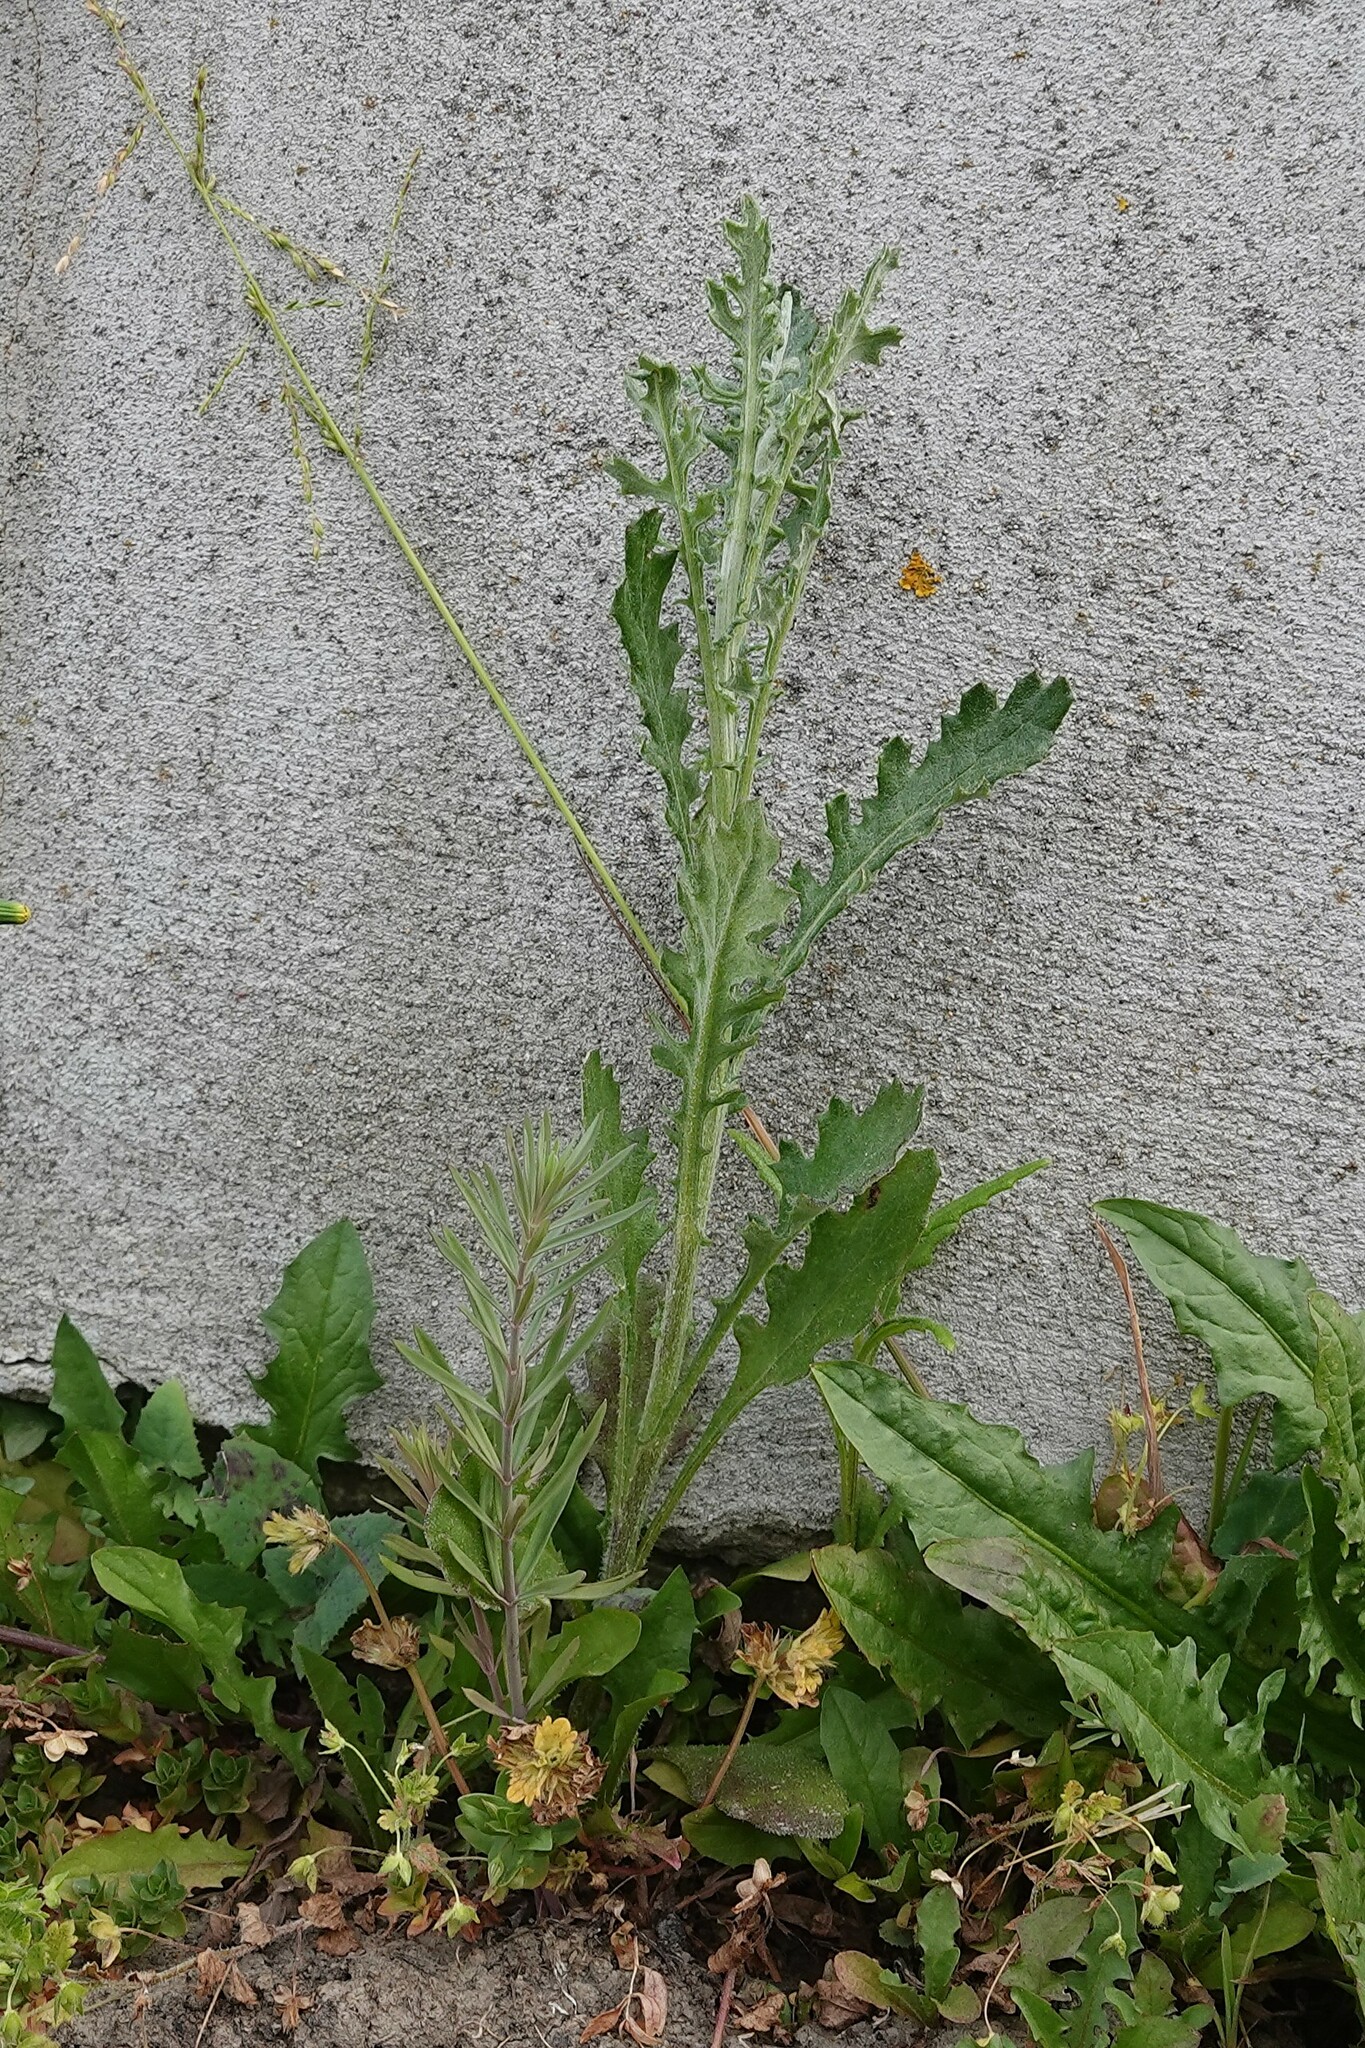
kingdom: Plantae
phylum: Tracheophyta
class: Magnoliopsida
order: Asterales
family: Asteraceae
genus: Senecio
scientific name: Senecio glomeratus
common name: Cutleaf burnweed
